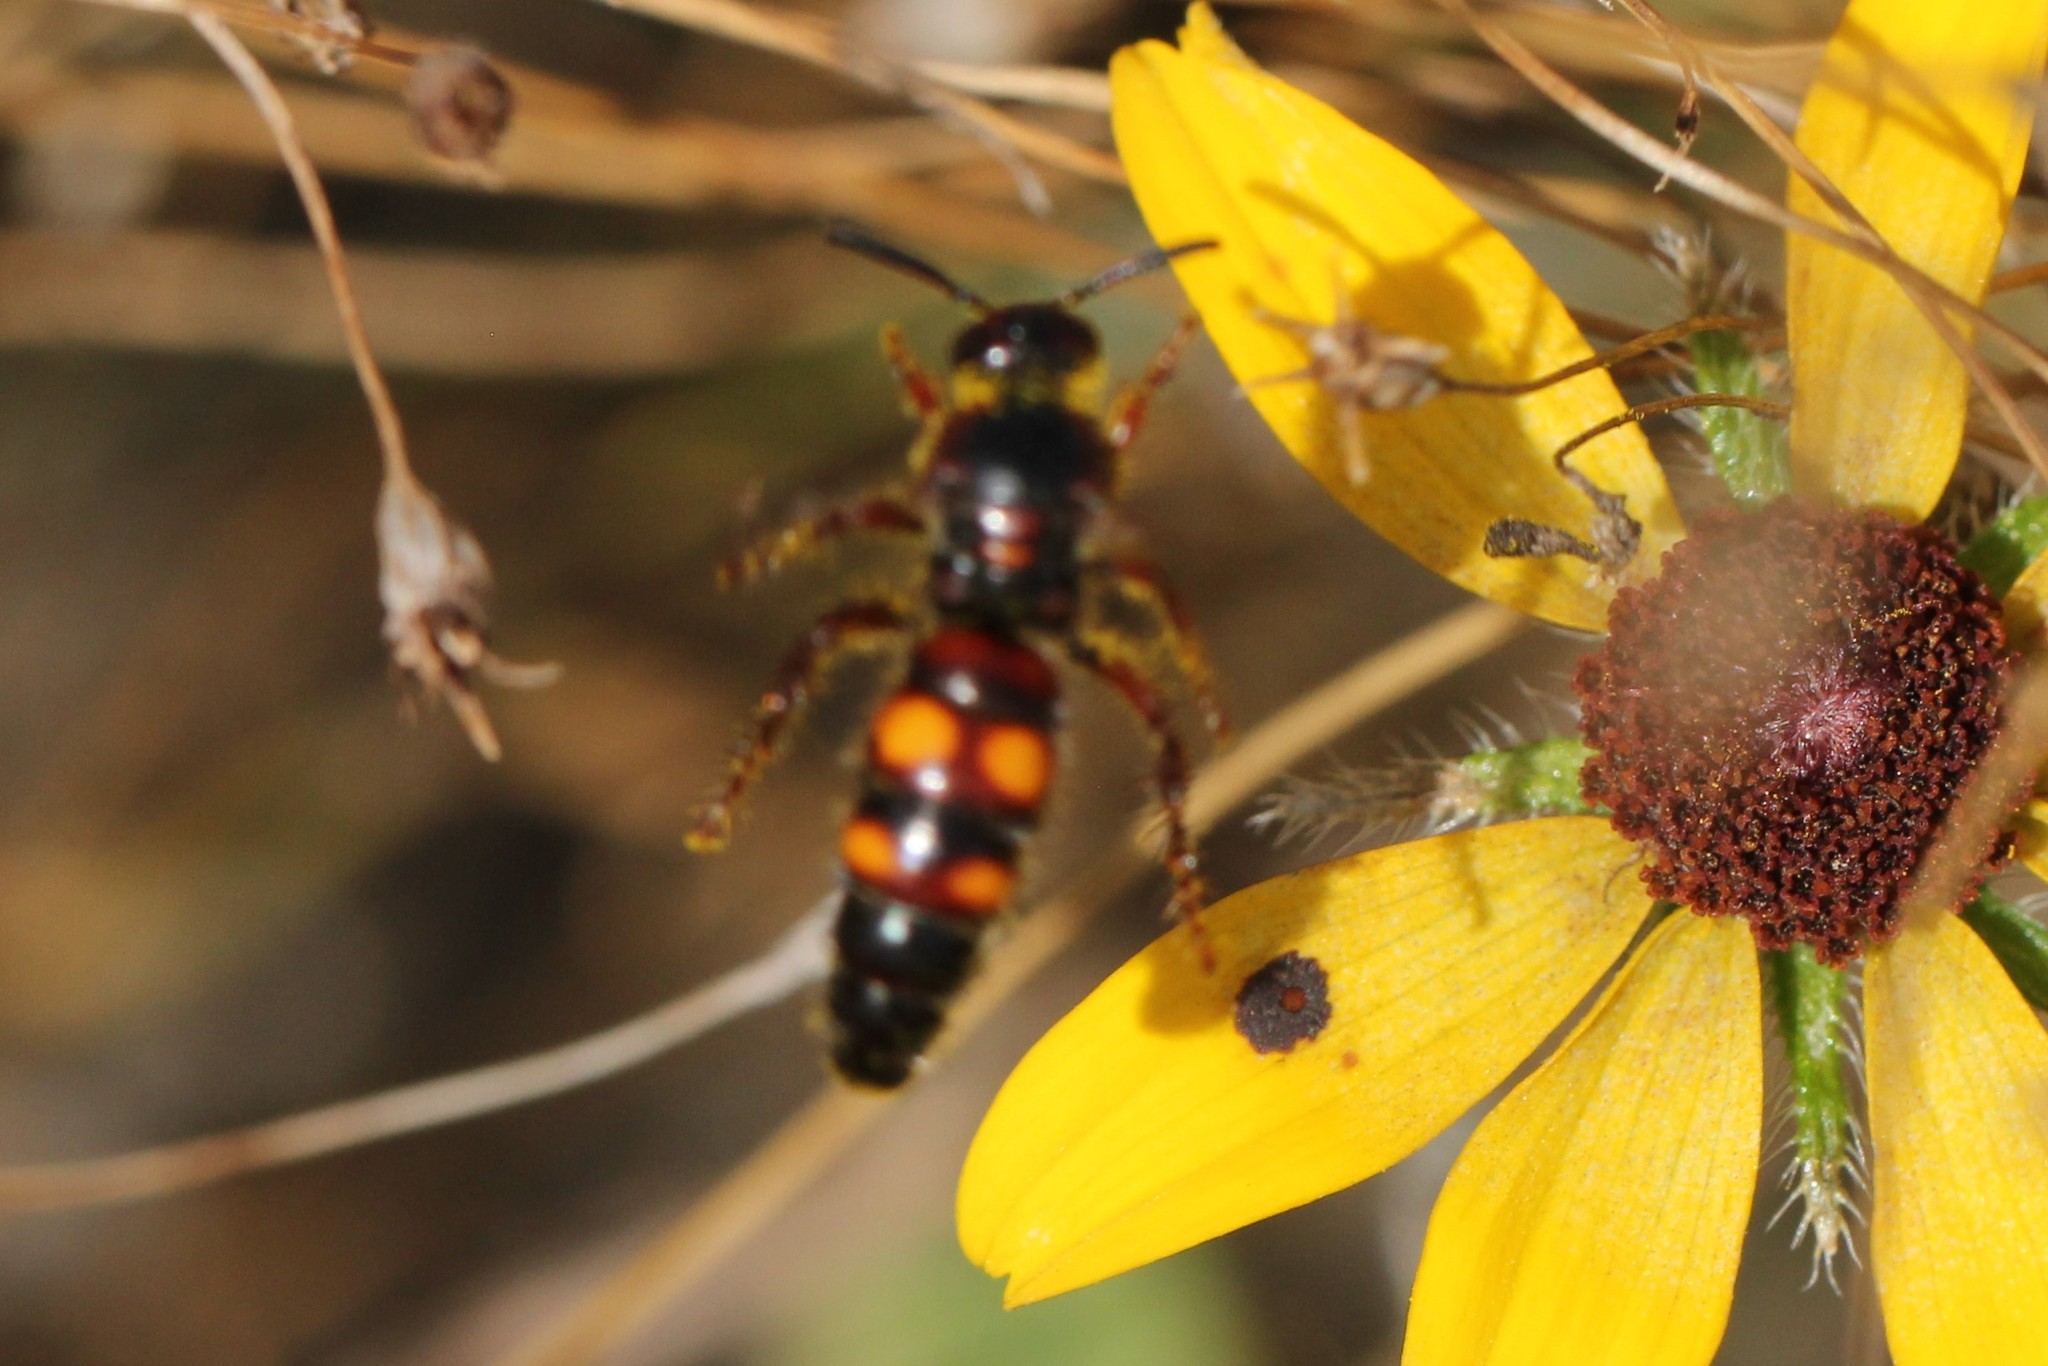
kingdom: Animalia
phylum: Arthropoda
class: Insecta
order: Hymenoptera
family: Scoliidae
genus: Scolia
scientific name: Scolia nobilitata
